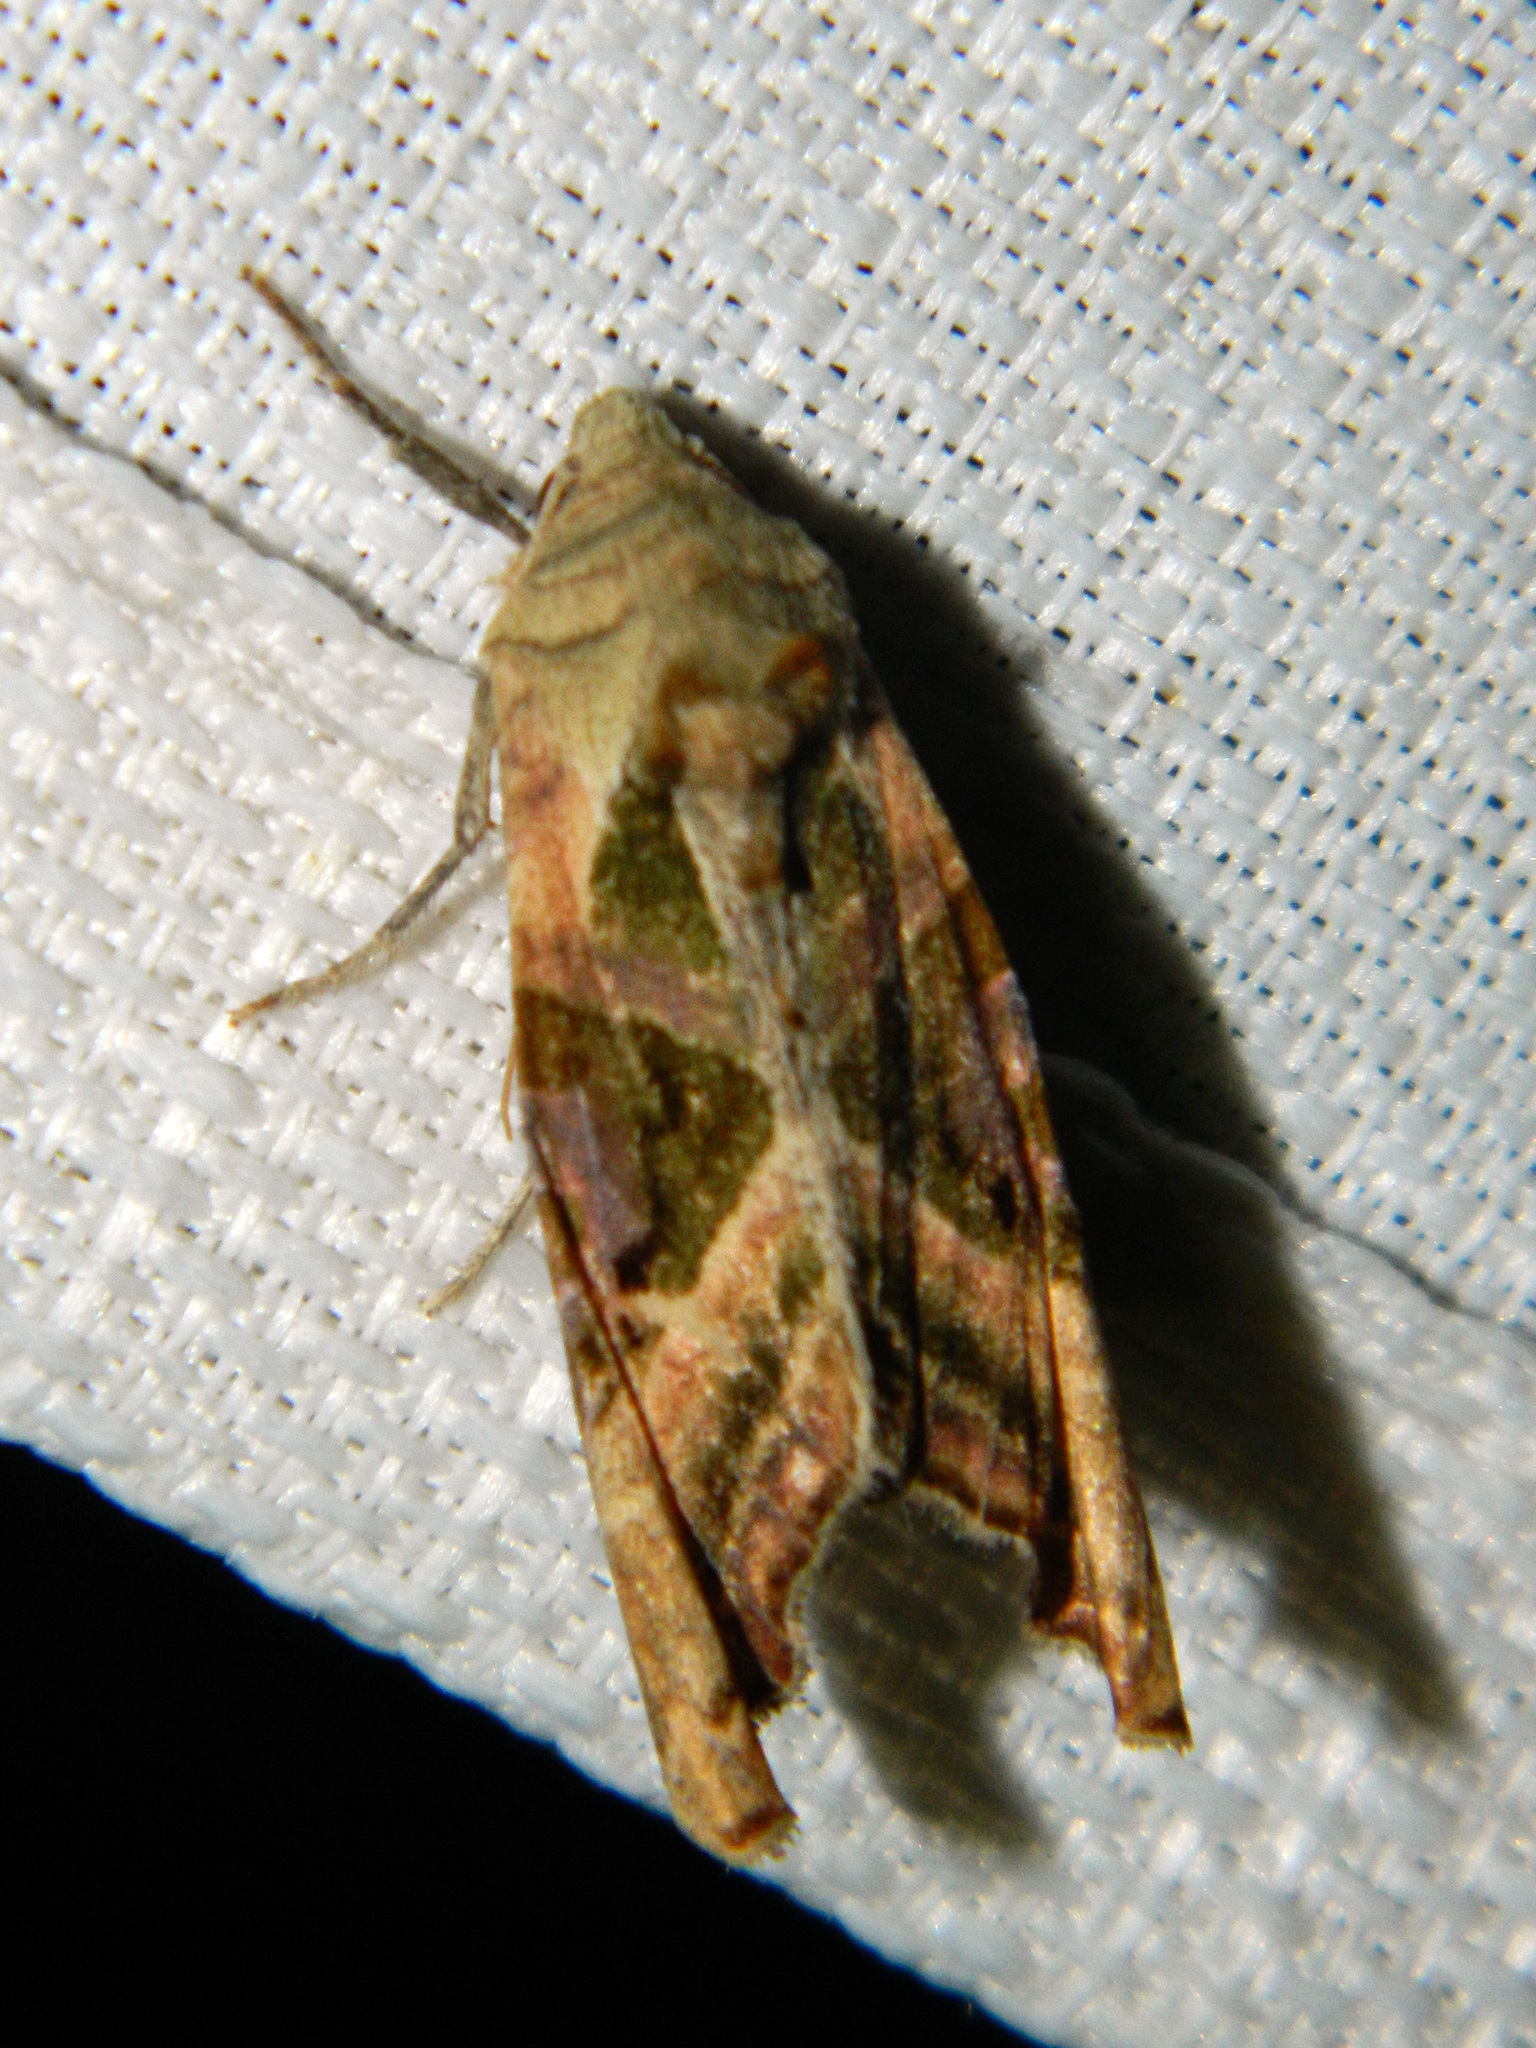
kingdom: Animalia
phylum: Arthropoda
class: Insecta
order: Lepidoptera
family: Noctuidae
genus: Phlogophora
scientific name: Phlogophora iris
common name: Olive angle shades
